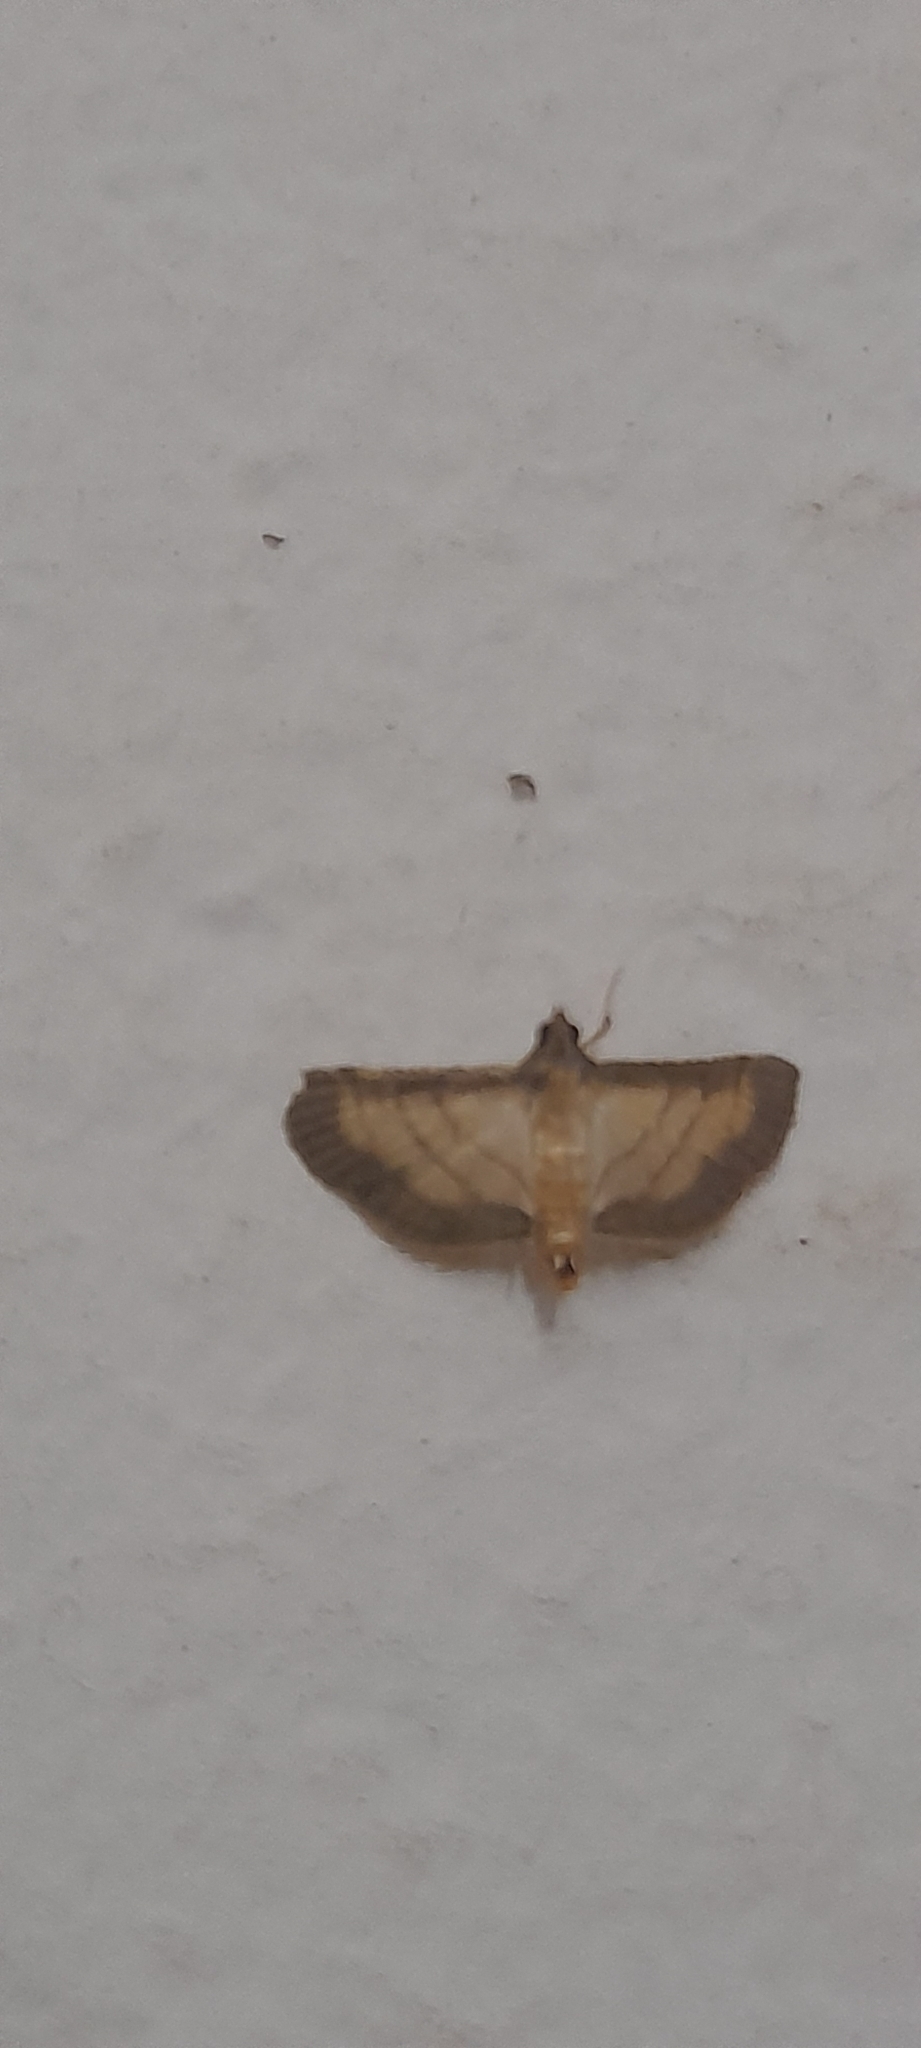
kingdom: Animalia
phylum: Arthropoda
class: Insecta
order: Lepidoptera
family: Crambidae
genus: Cnaphalocrocis
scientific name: Cnaphalocrocis trebiusalis
